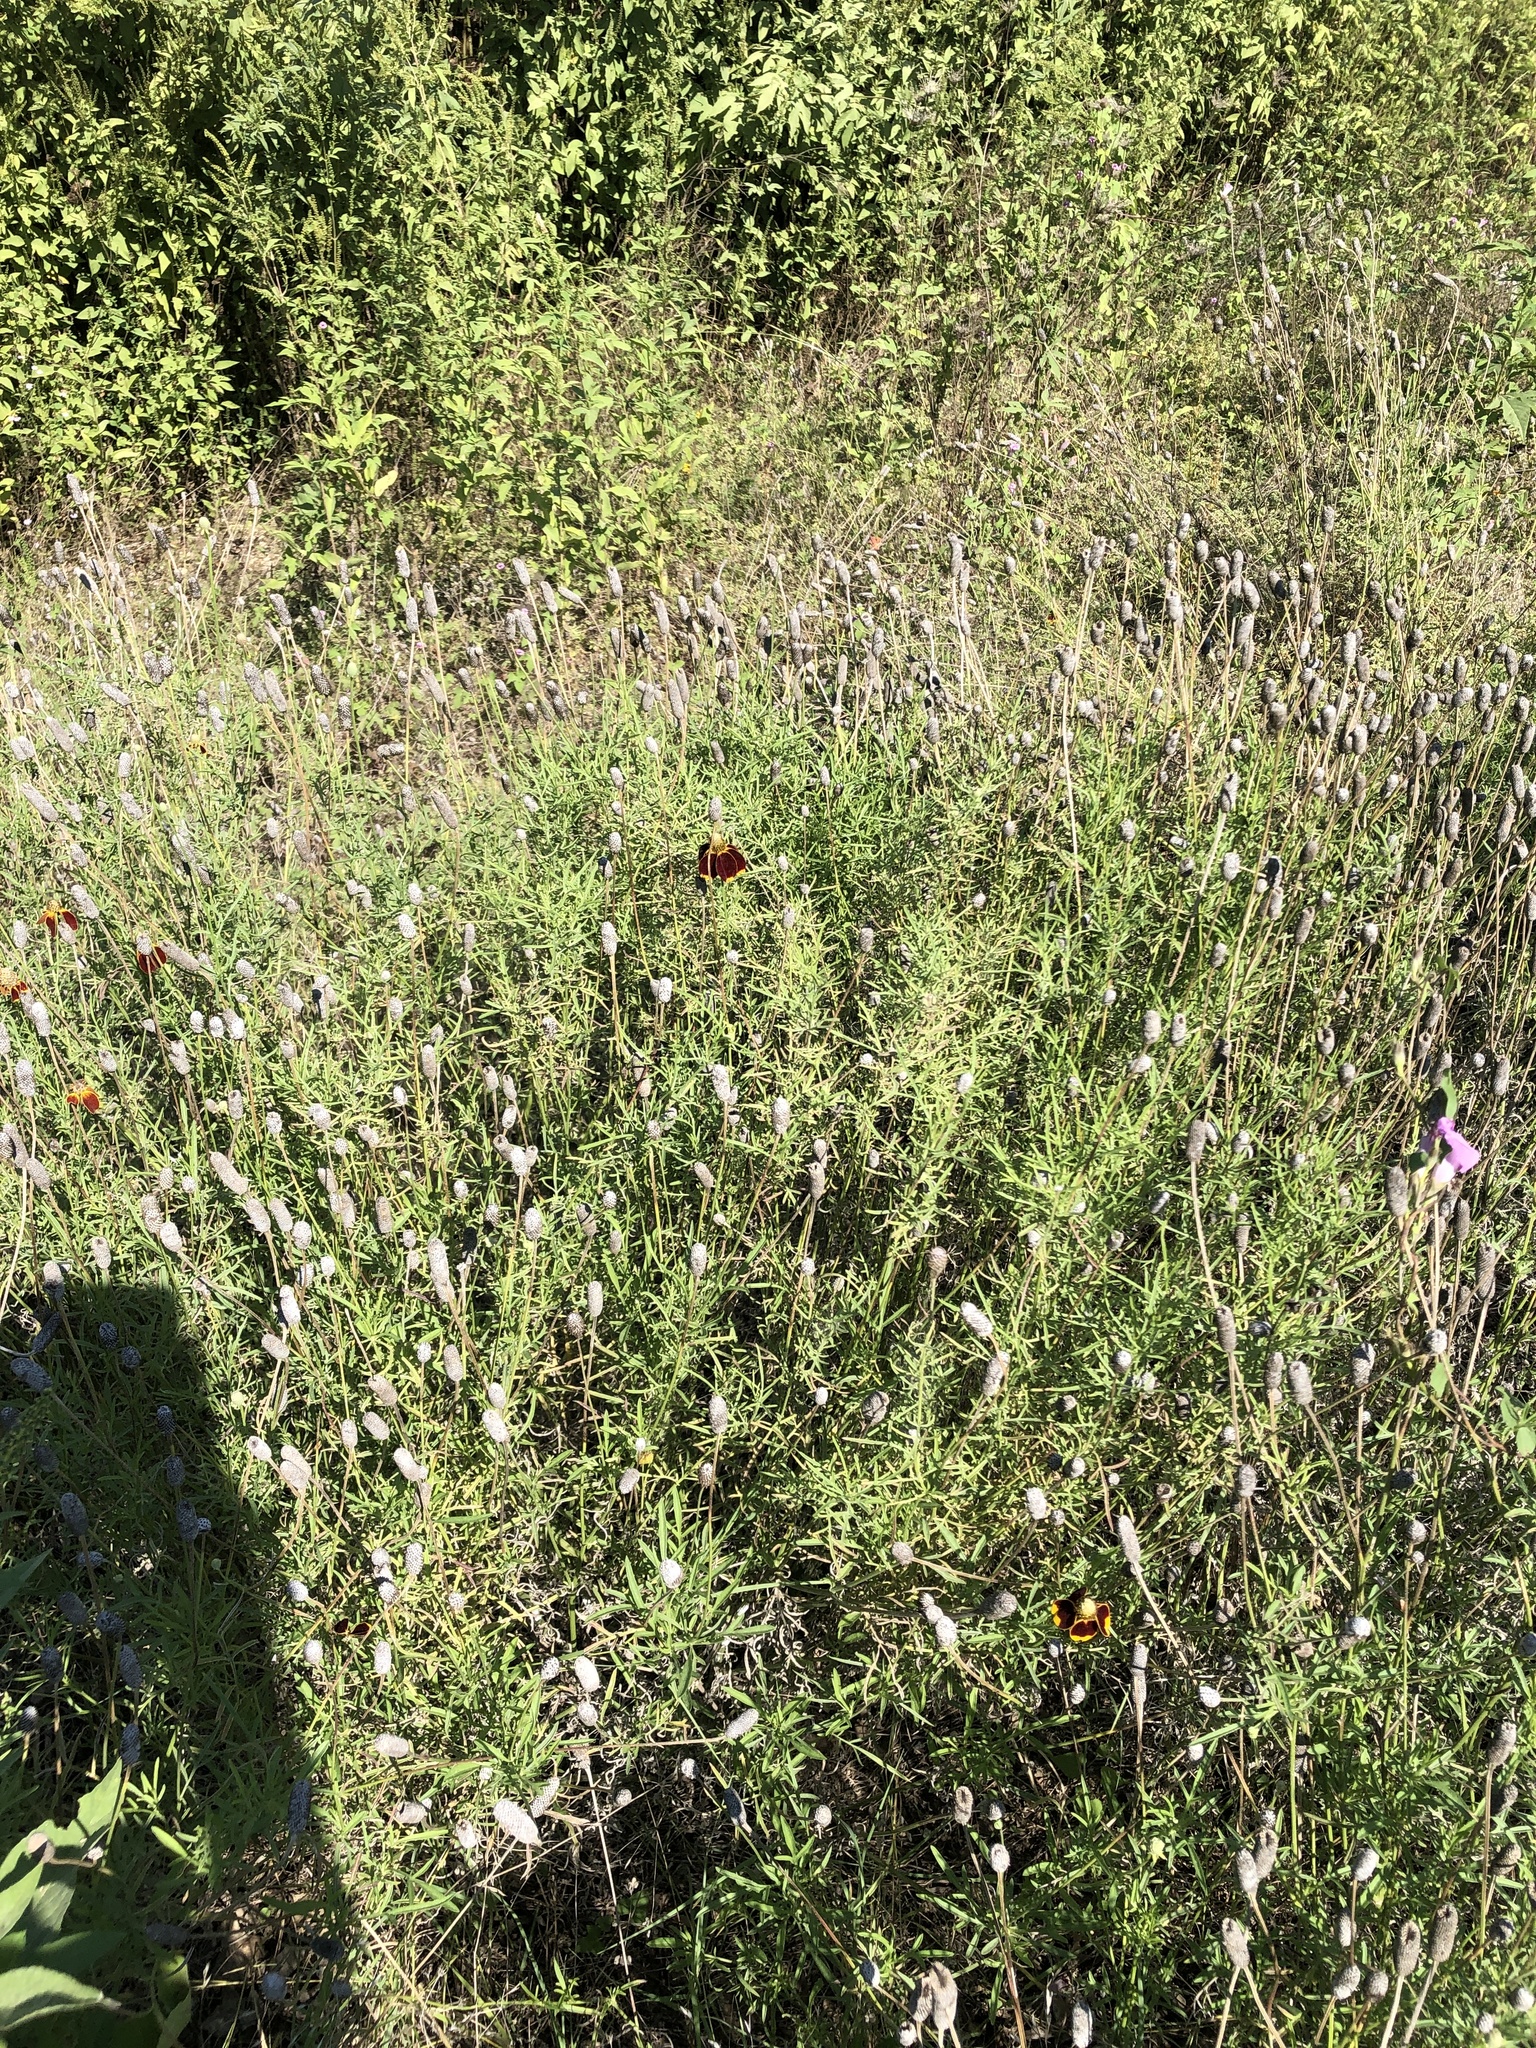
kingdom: Plantae
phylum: Tracheophyta
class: Magnoliopsida
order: Asterales
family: Asteraceae
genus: Ratibida
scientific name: Ratibida columnifera
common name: Prairie coneflower
